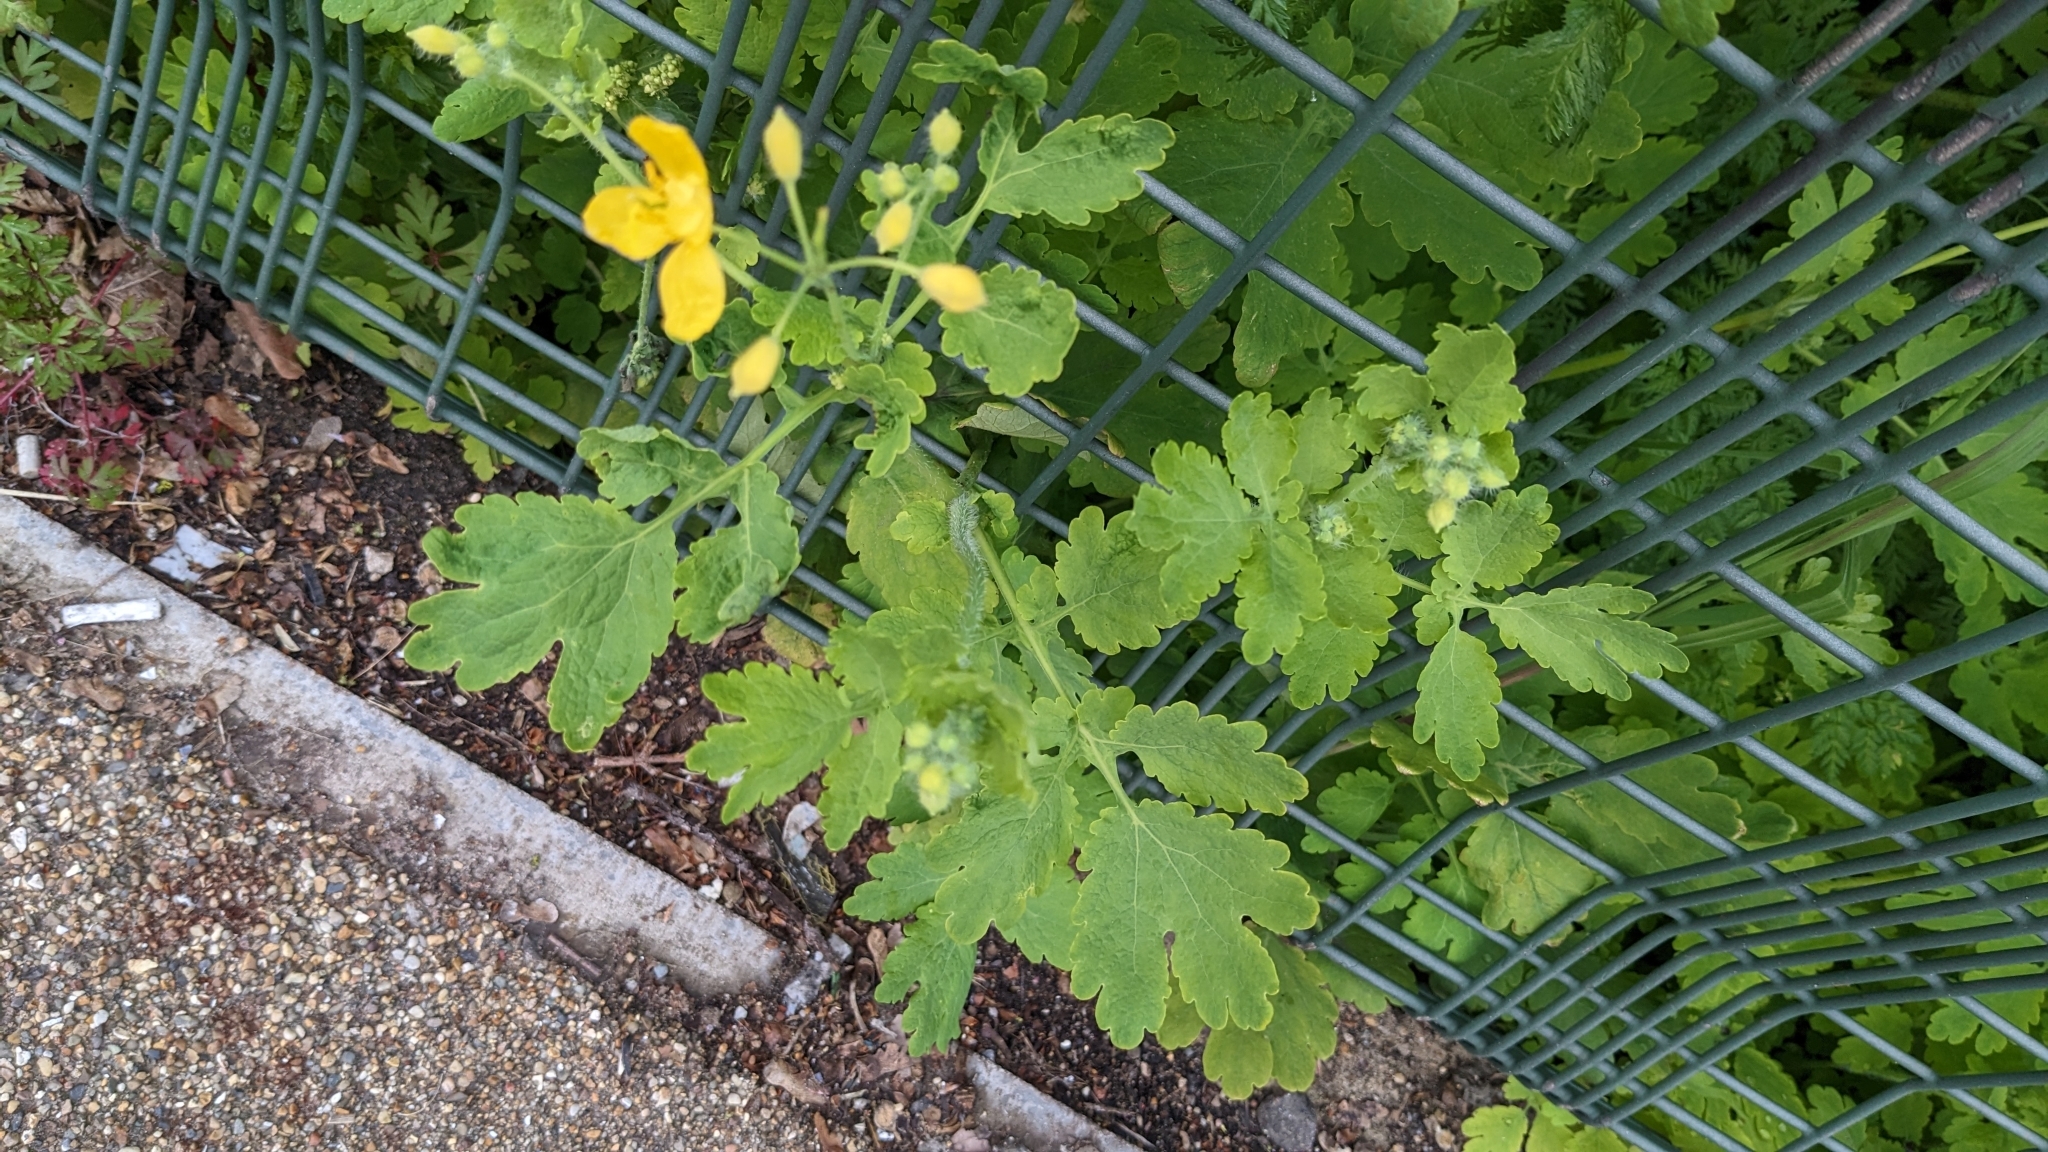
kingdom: Plantae
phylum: Tracheophyta
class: Magnoliopsida
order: Ranunculales
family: Papaveraceae
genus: Chelidonium
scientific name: Chelidonium majus
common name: Greater celandine
